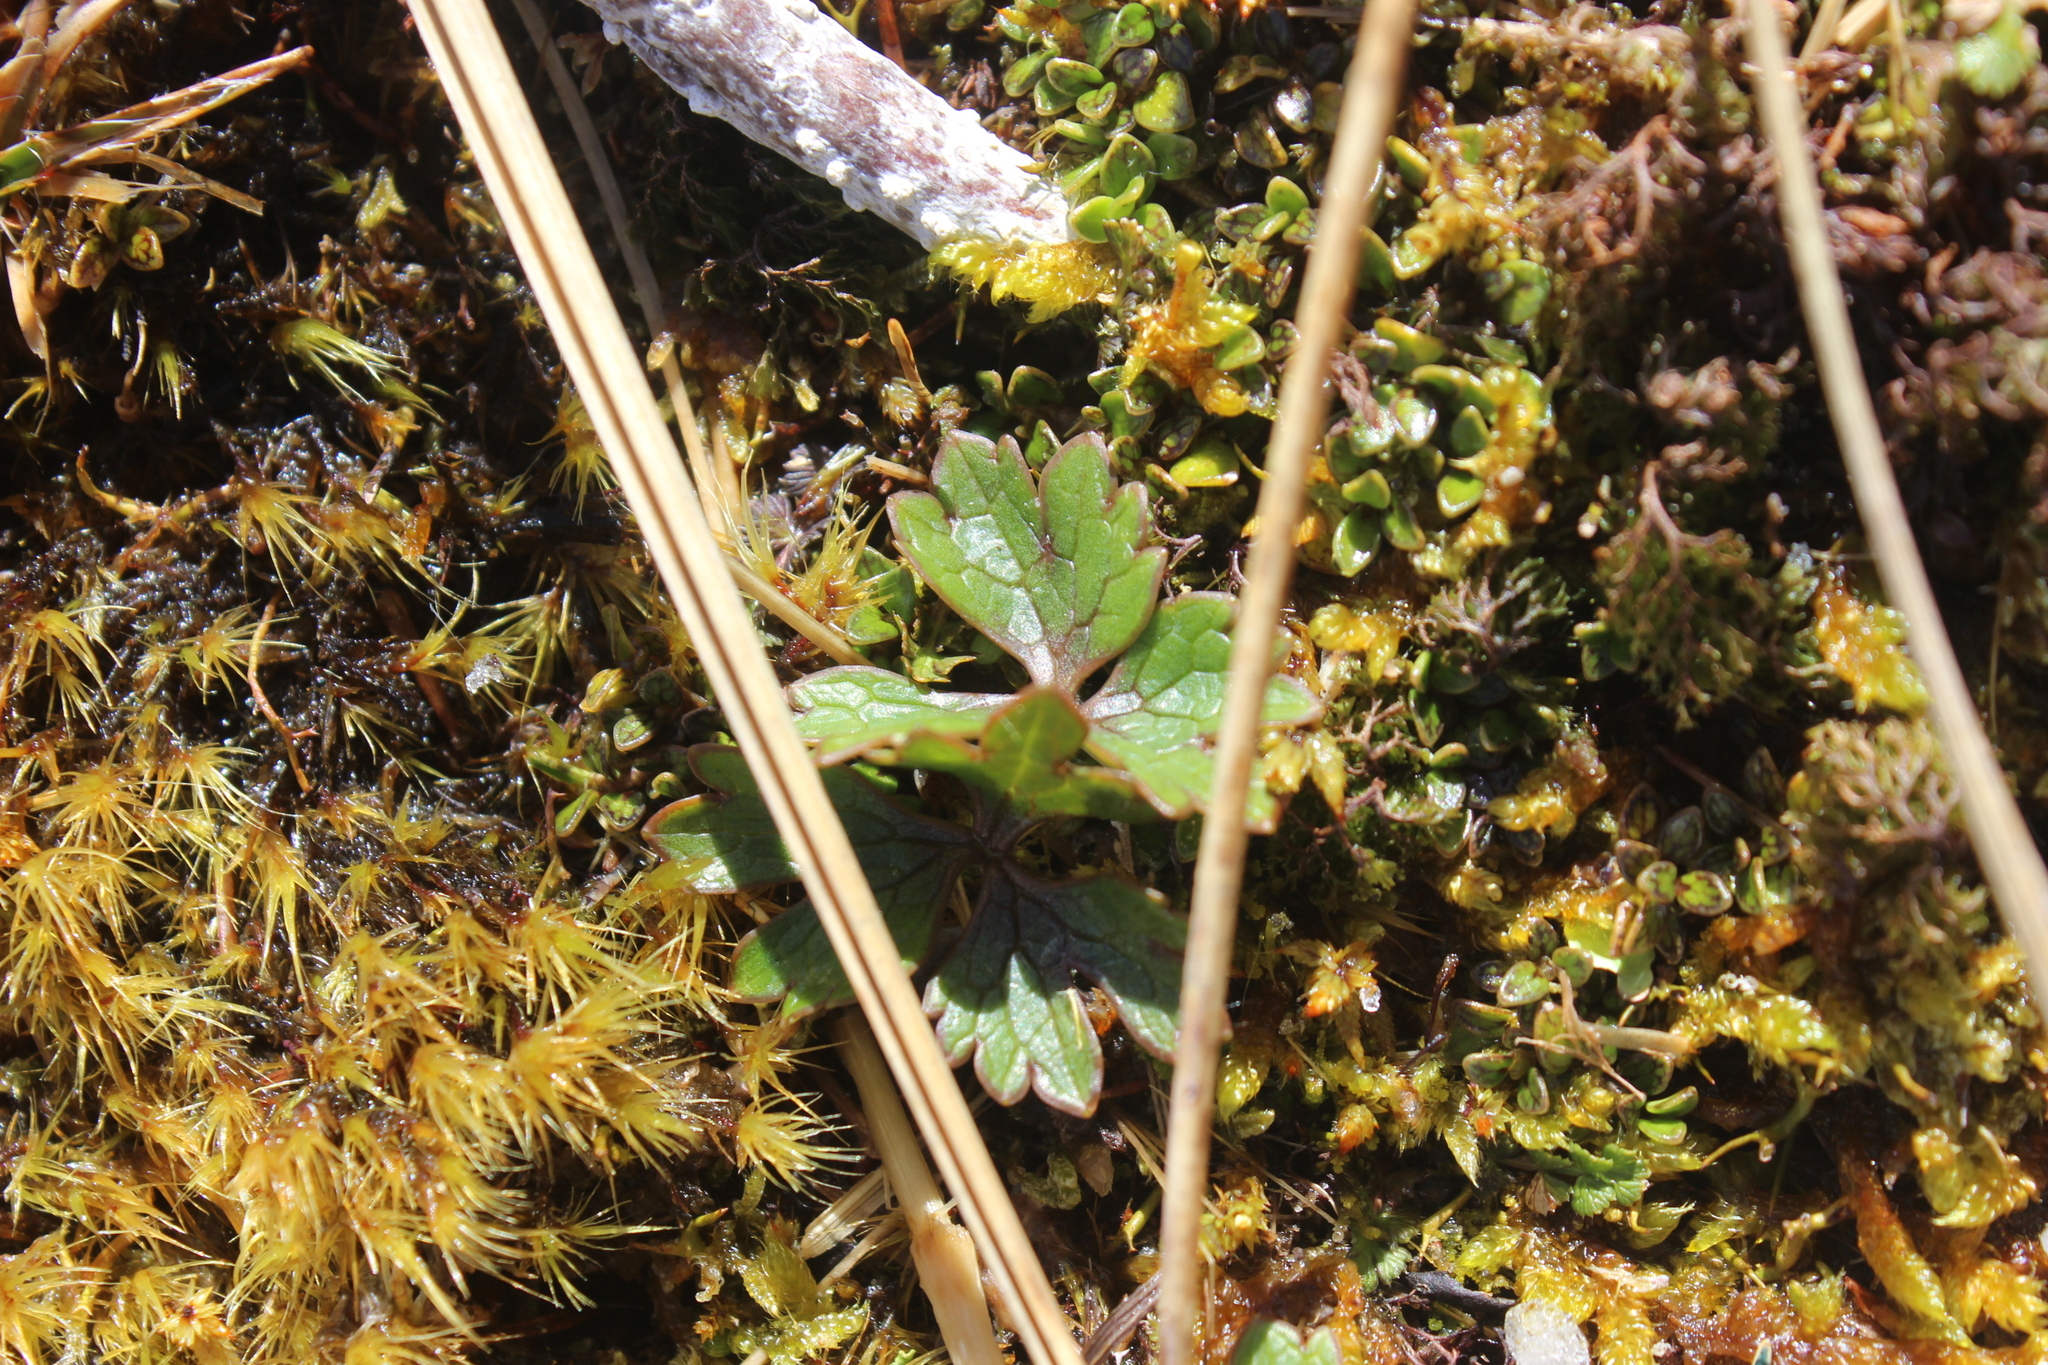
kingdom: Plantae
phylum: Tracheophyta
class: Magnoliopsida
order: Ranunculales
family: Ranunculaceae
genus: Ranunculus
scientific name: Ranunculus verticillatus
